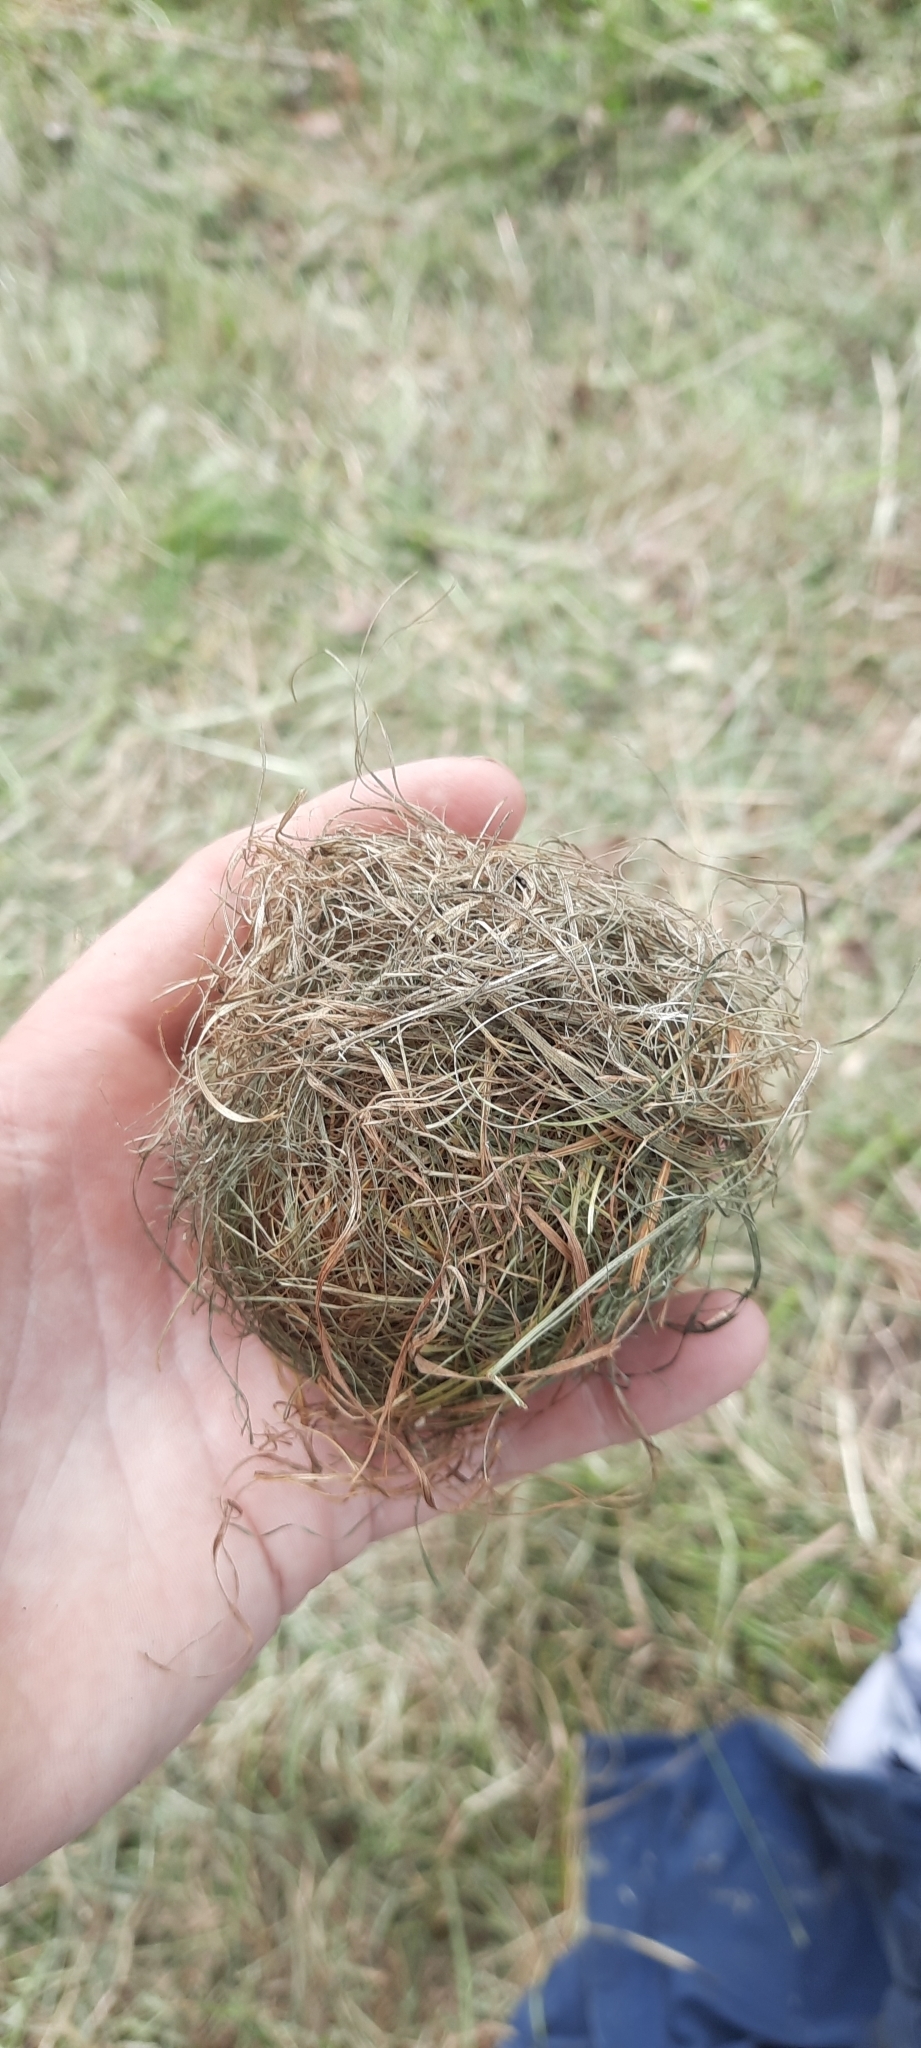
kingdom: Animalia
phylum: Chordata
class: Mammalia
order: Rodentia
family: Muridae
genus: Micromys
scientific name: Micromys minutus
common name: Harvest mouse
